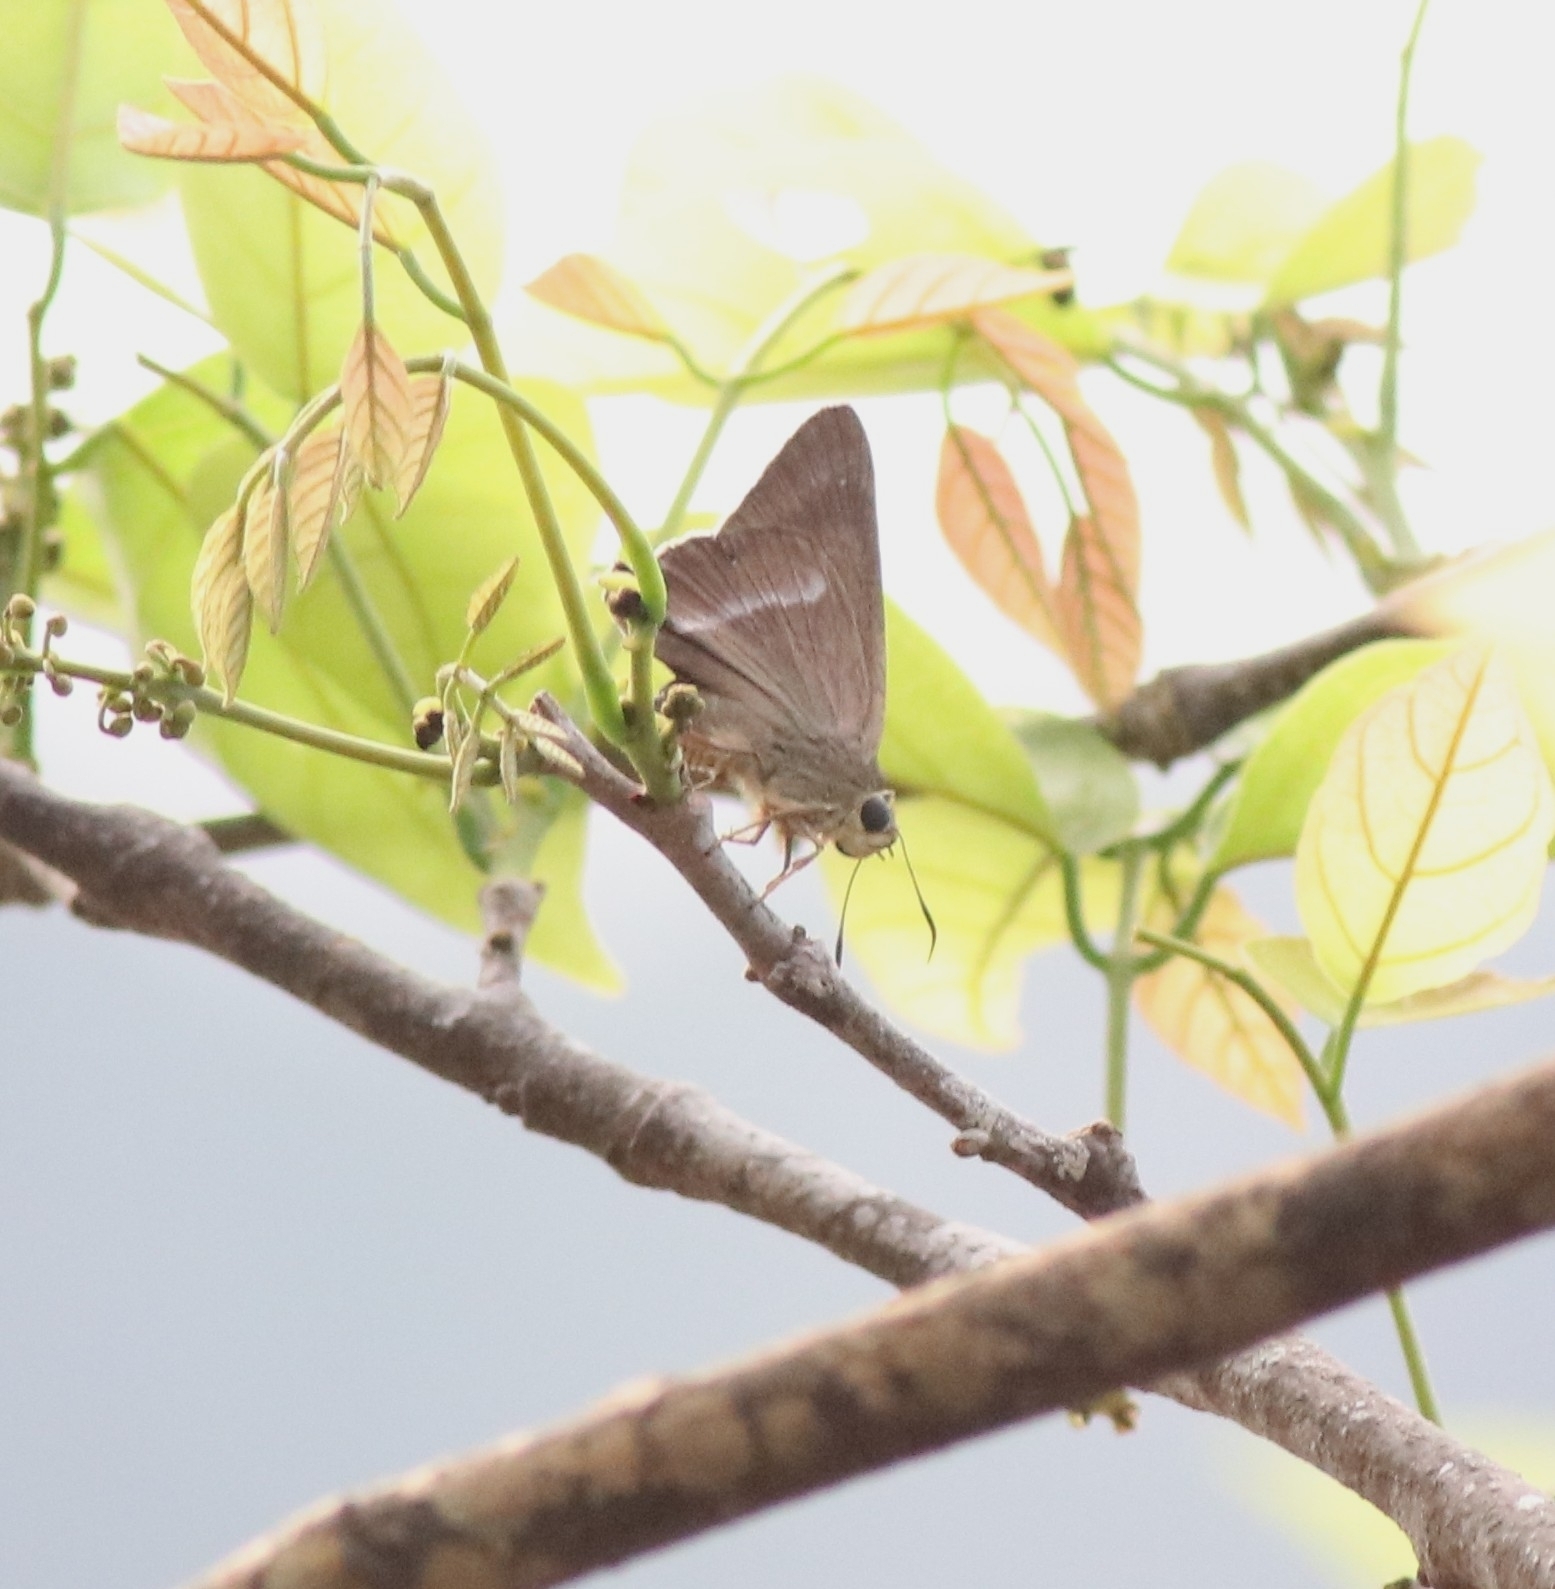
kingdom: Animalia
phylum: Arthropoda
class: Insecta
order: Lepidoptera
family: Hesperiidae
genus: Hasora
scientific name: Hasora chromus
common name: Common banded awl
